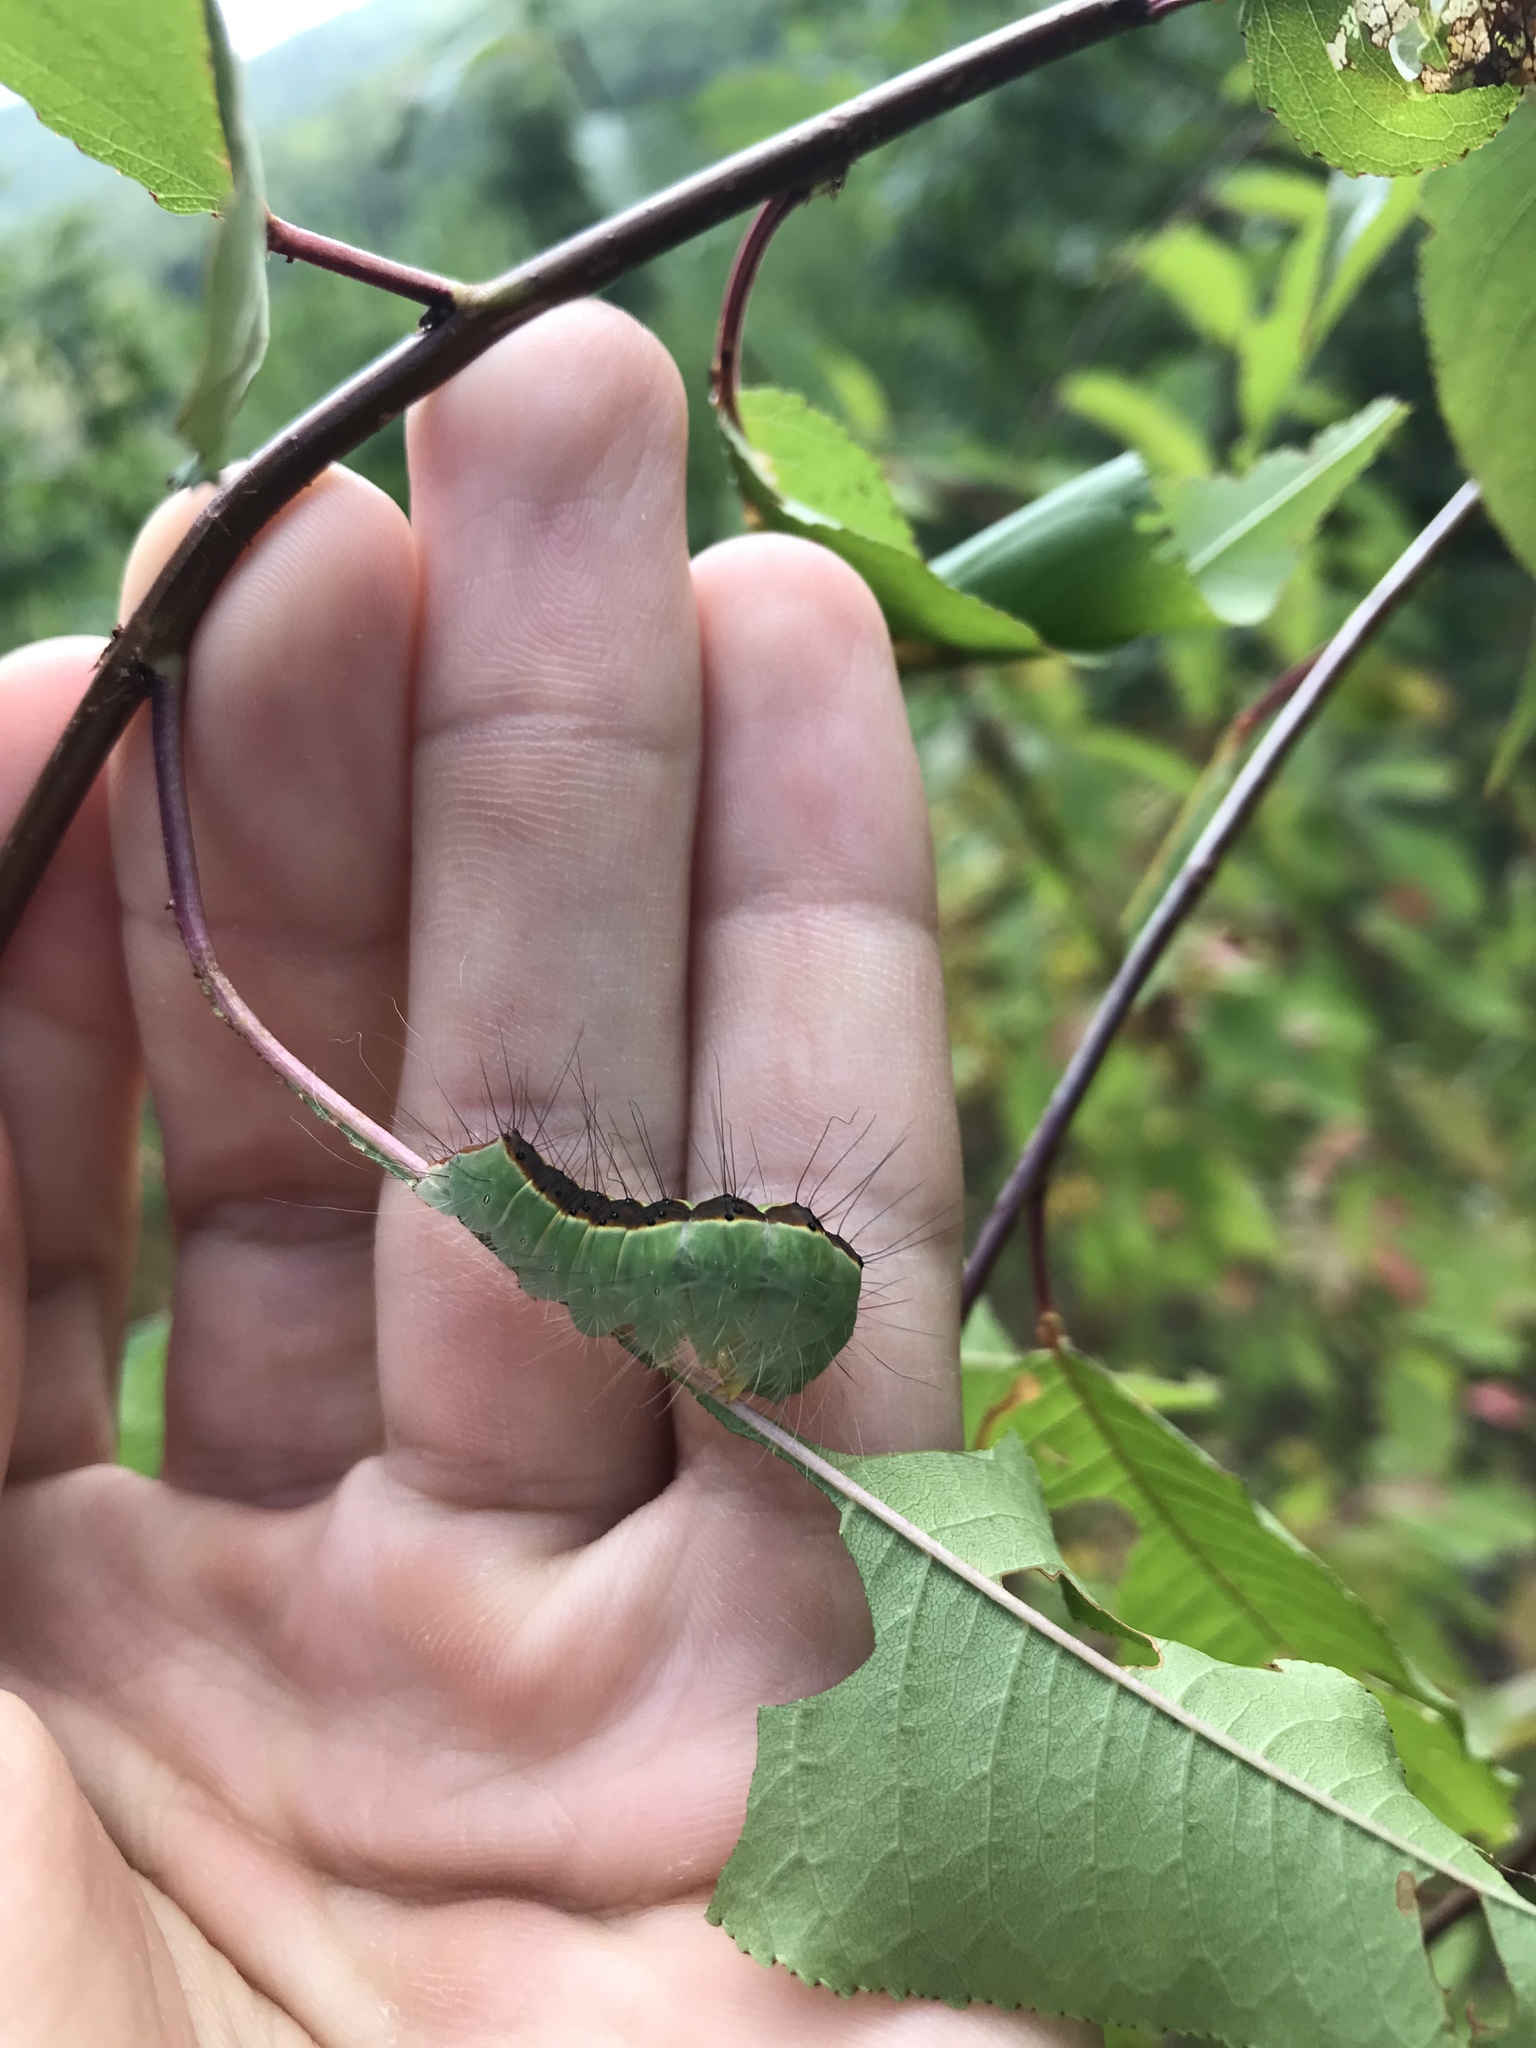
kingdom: Animalia
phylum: Arthropoda
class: Insecta
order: Lepidoptera
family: Noctuidae
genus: Acronicta
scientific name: Acronicta superans
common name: Splendid dagger
